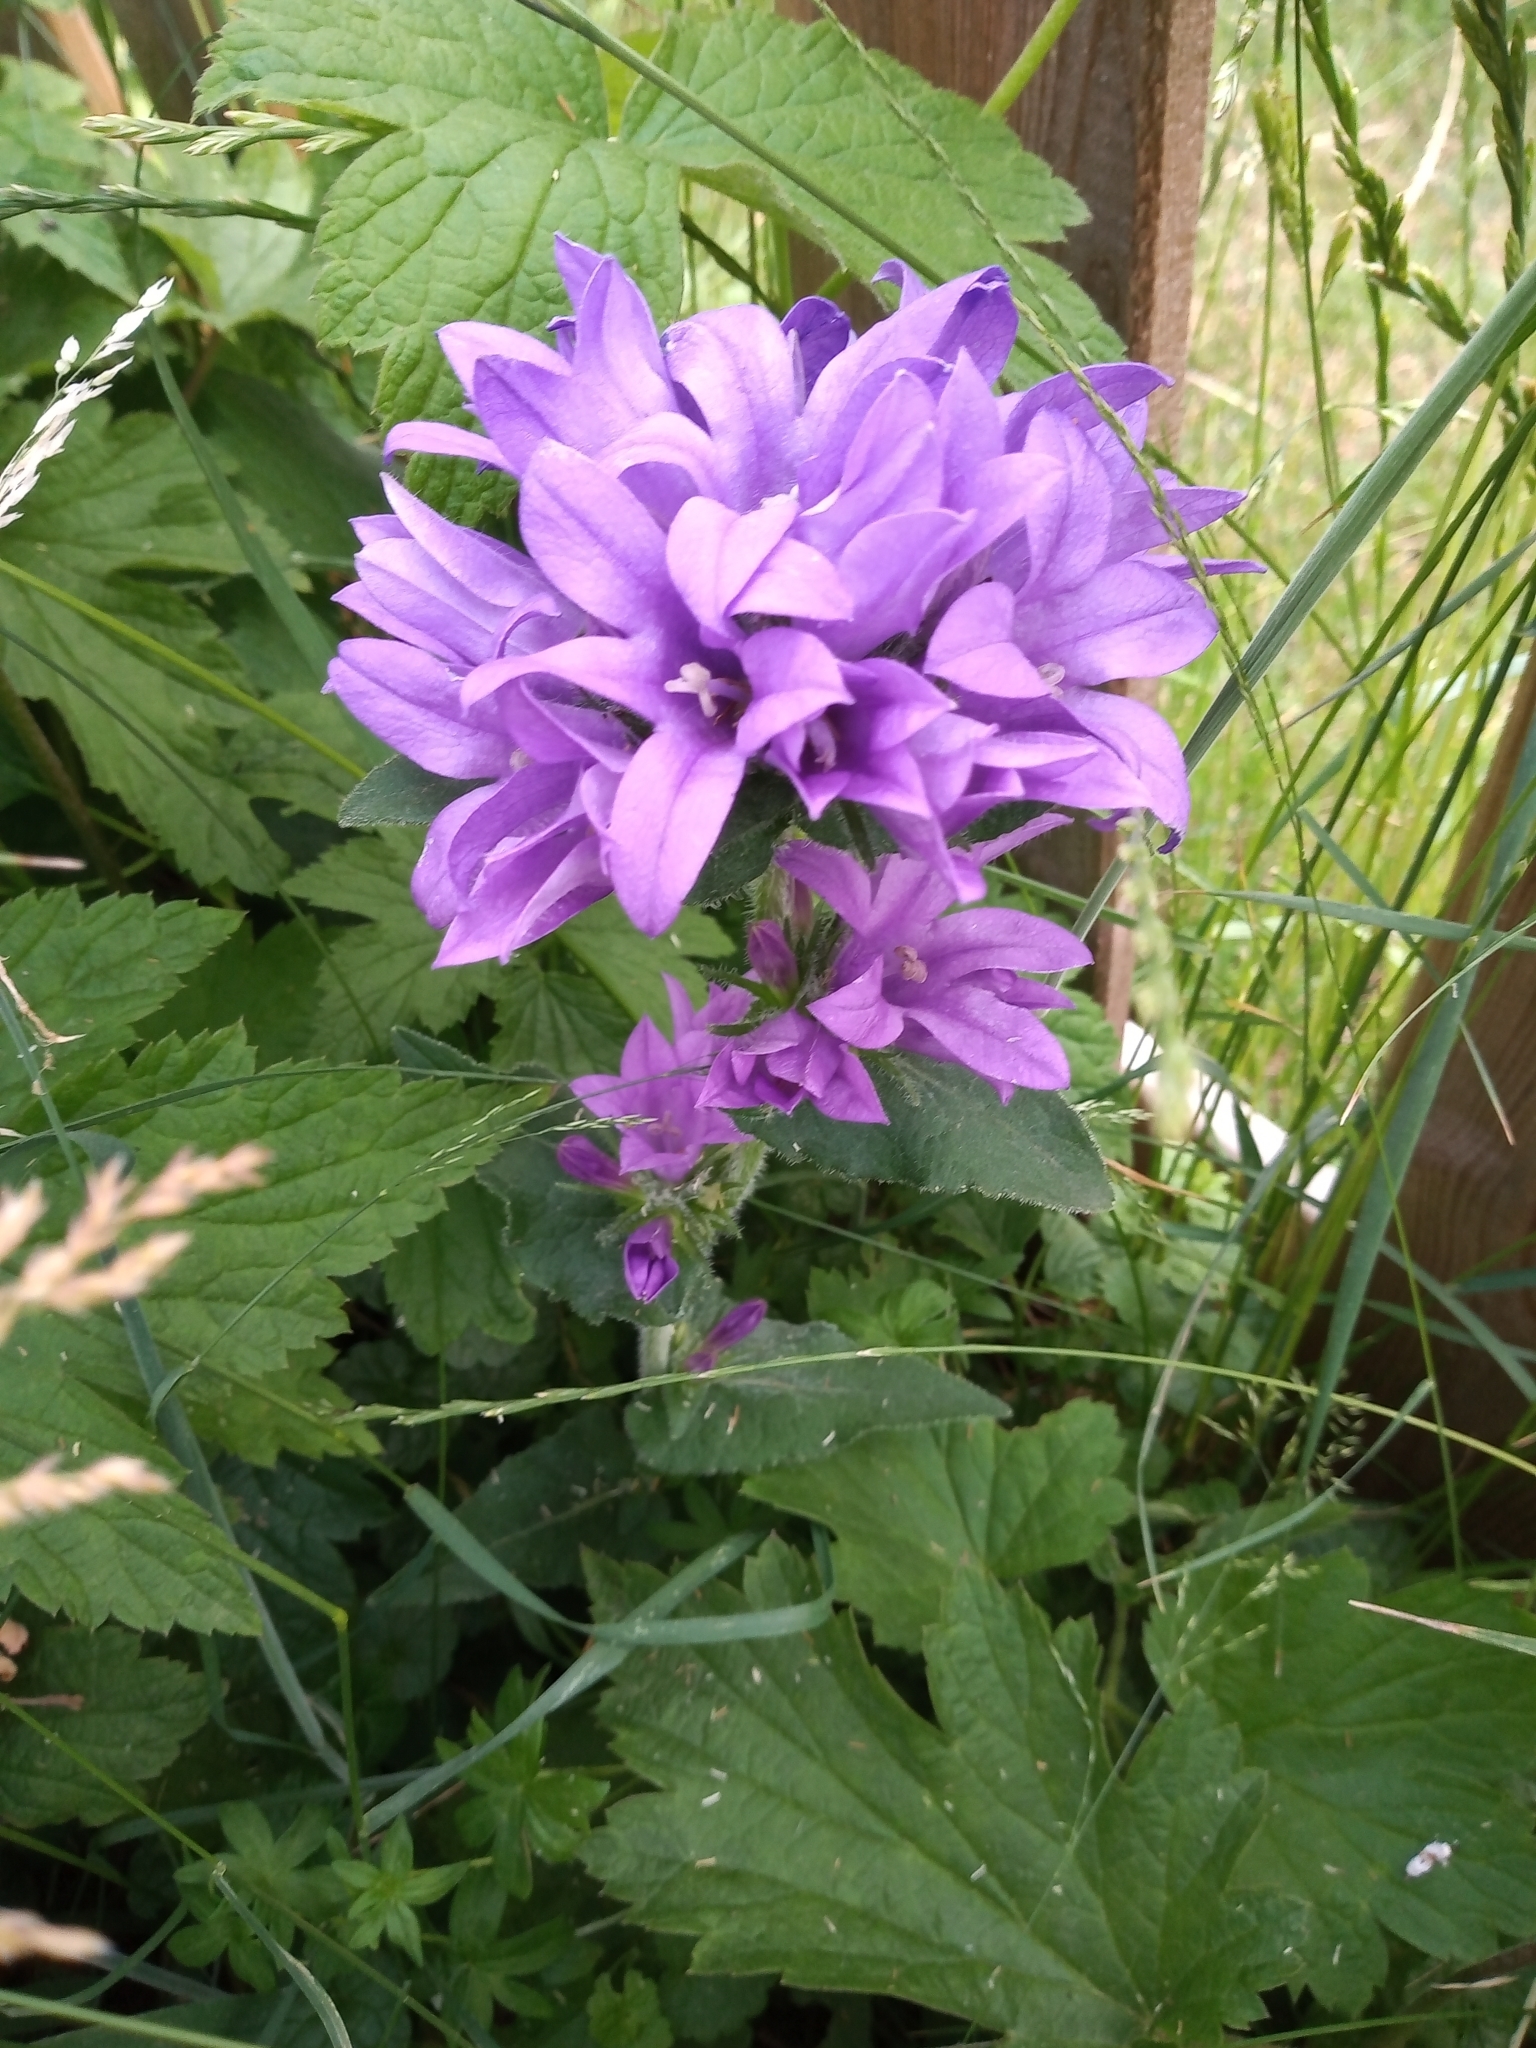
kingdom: Plantae
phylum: Tracheophyta
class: Magnoliopsida
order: Asterales
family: Campanulaceae
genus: Campanula
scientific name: Campanula glomerata
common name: Clustered bellflower
